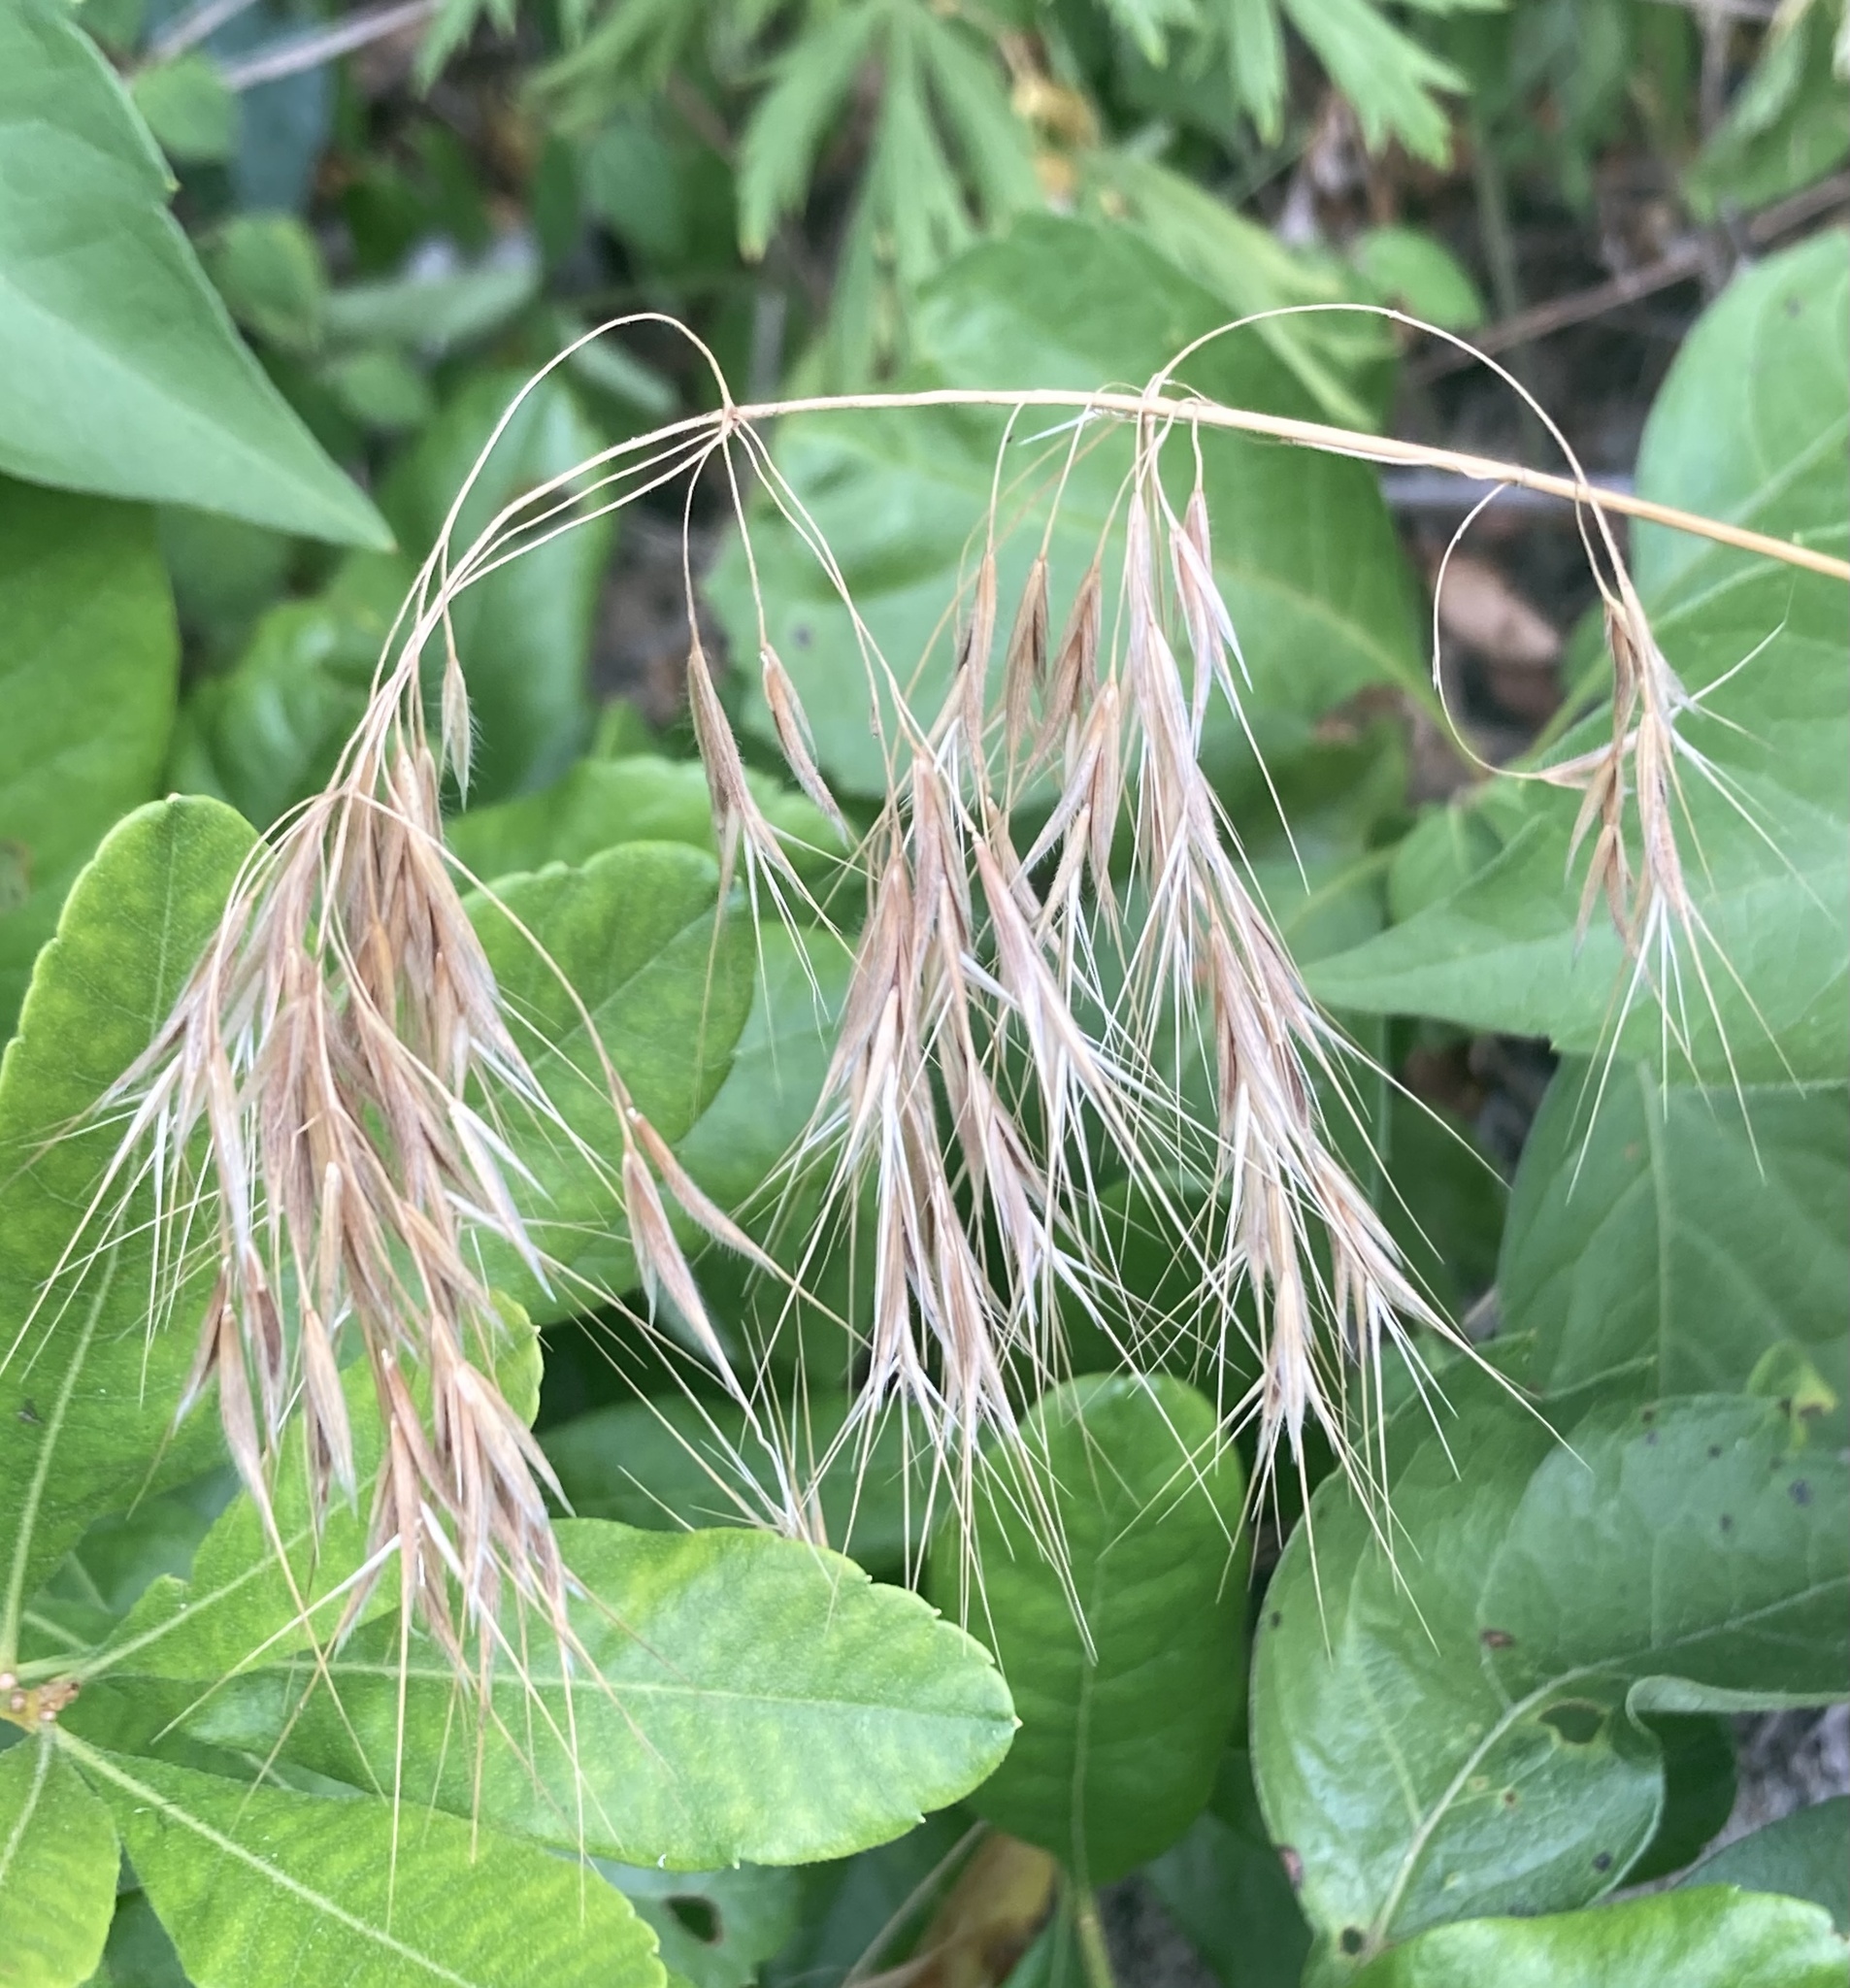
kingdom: Plantae
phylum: Tracheophyta
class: Liliopsida
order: Poales
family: Poaceae
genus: Bromus
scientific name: Bromus tectorum
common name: Cheatgrass
